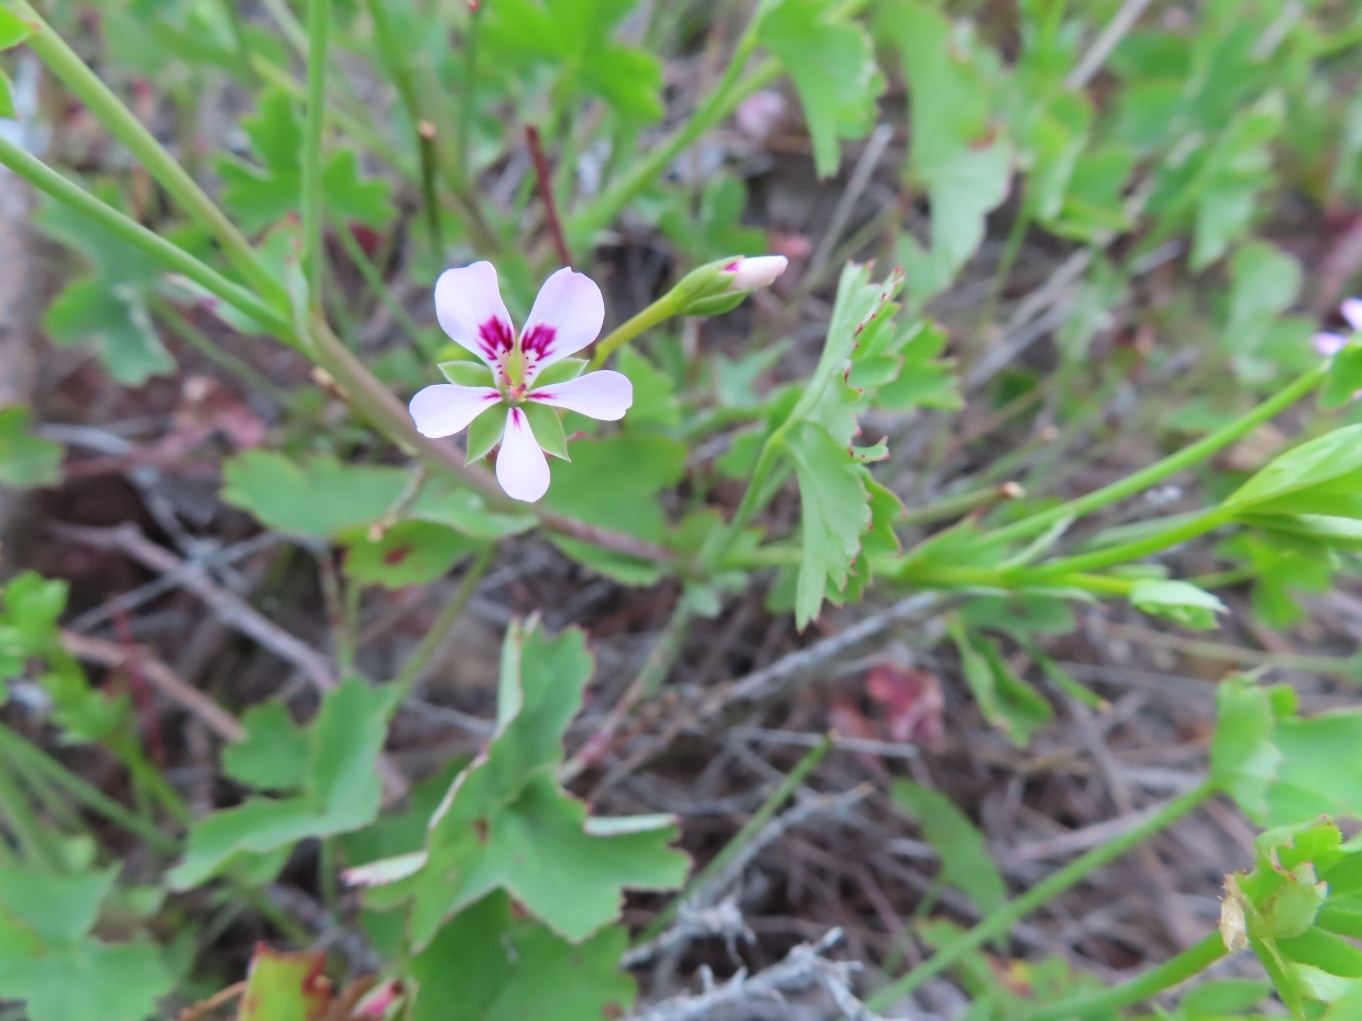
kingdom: Plantae
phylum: Tracheophyta
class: Magnoliopsida
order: Geraniales
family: Geraniaceae
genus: Pelargonium
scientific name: Pelargonium patulum
